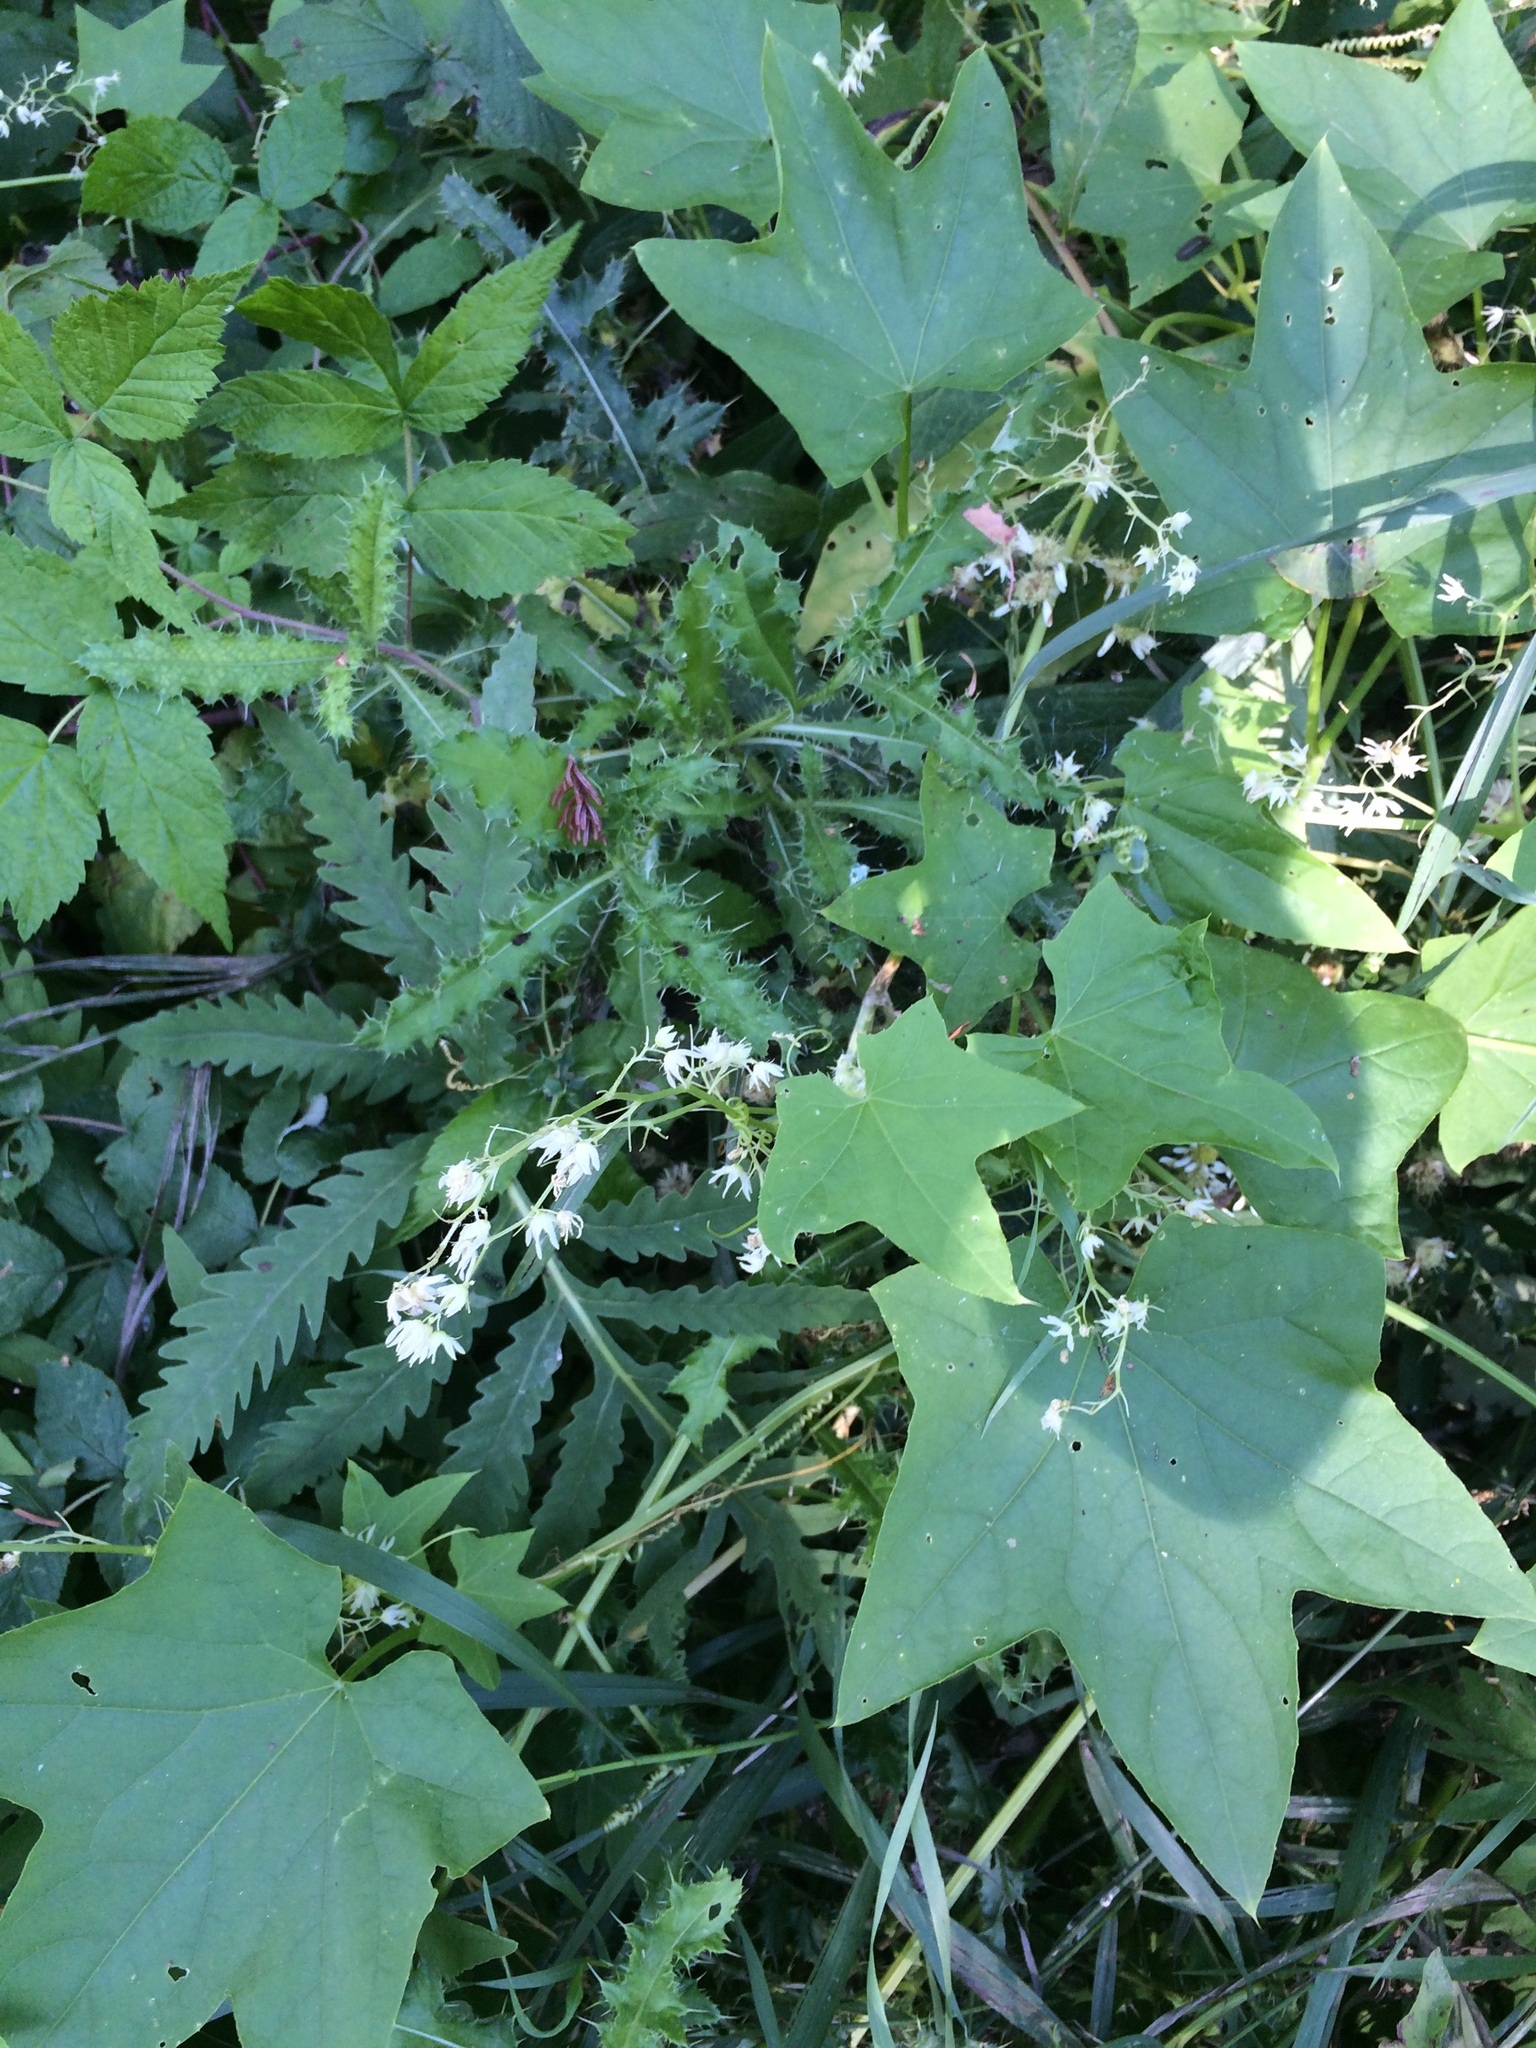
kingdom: Plantae
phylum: Tracheophyta
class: Magnoliopsida
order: Cucurbitales
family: Cucurbitaceae
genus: Echinocystis
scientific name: Echinocystis lobata
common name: Wild cucumber
